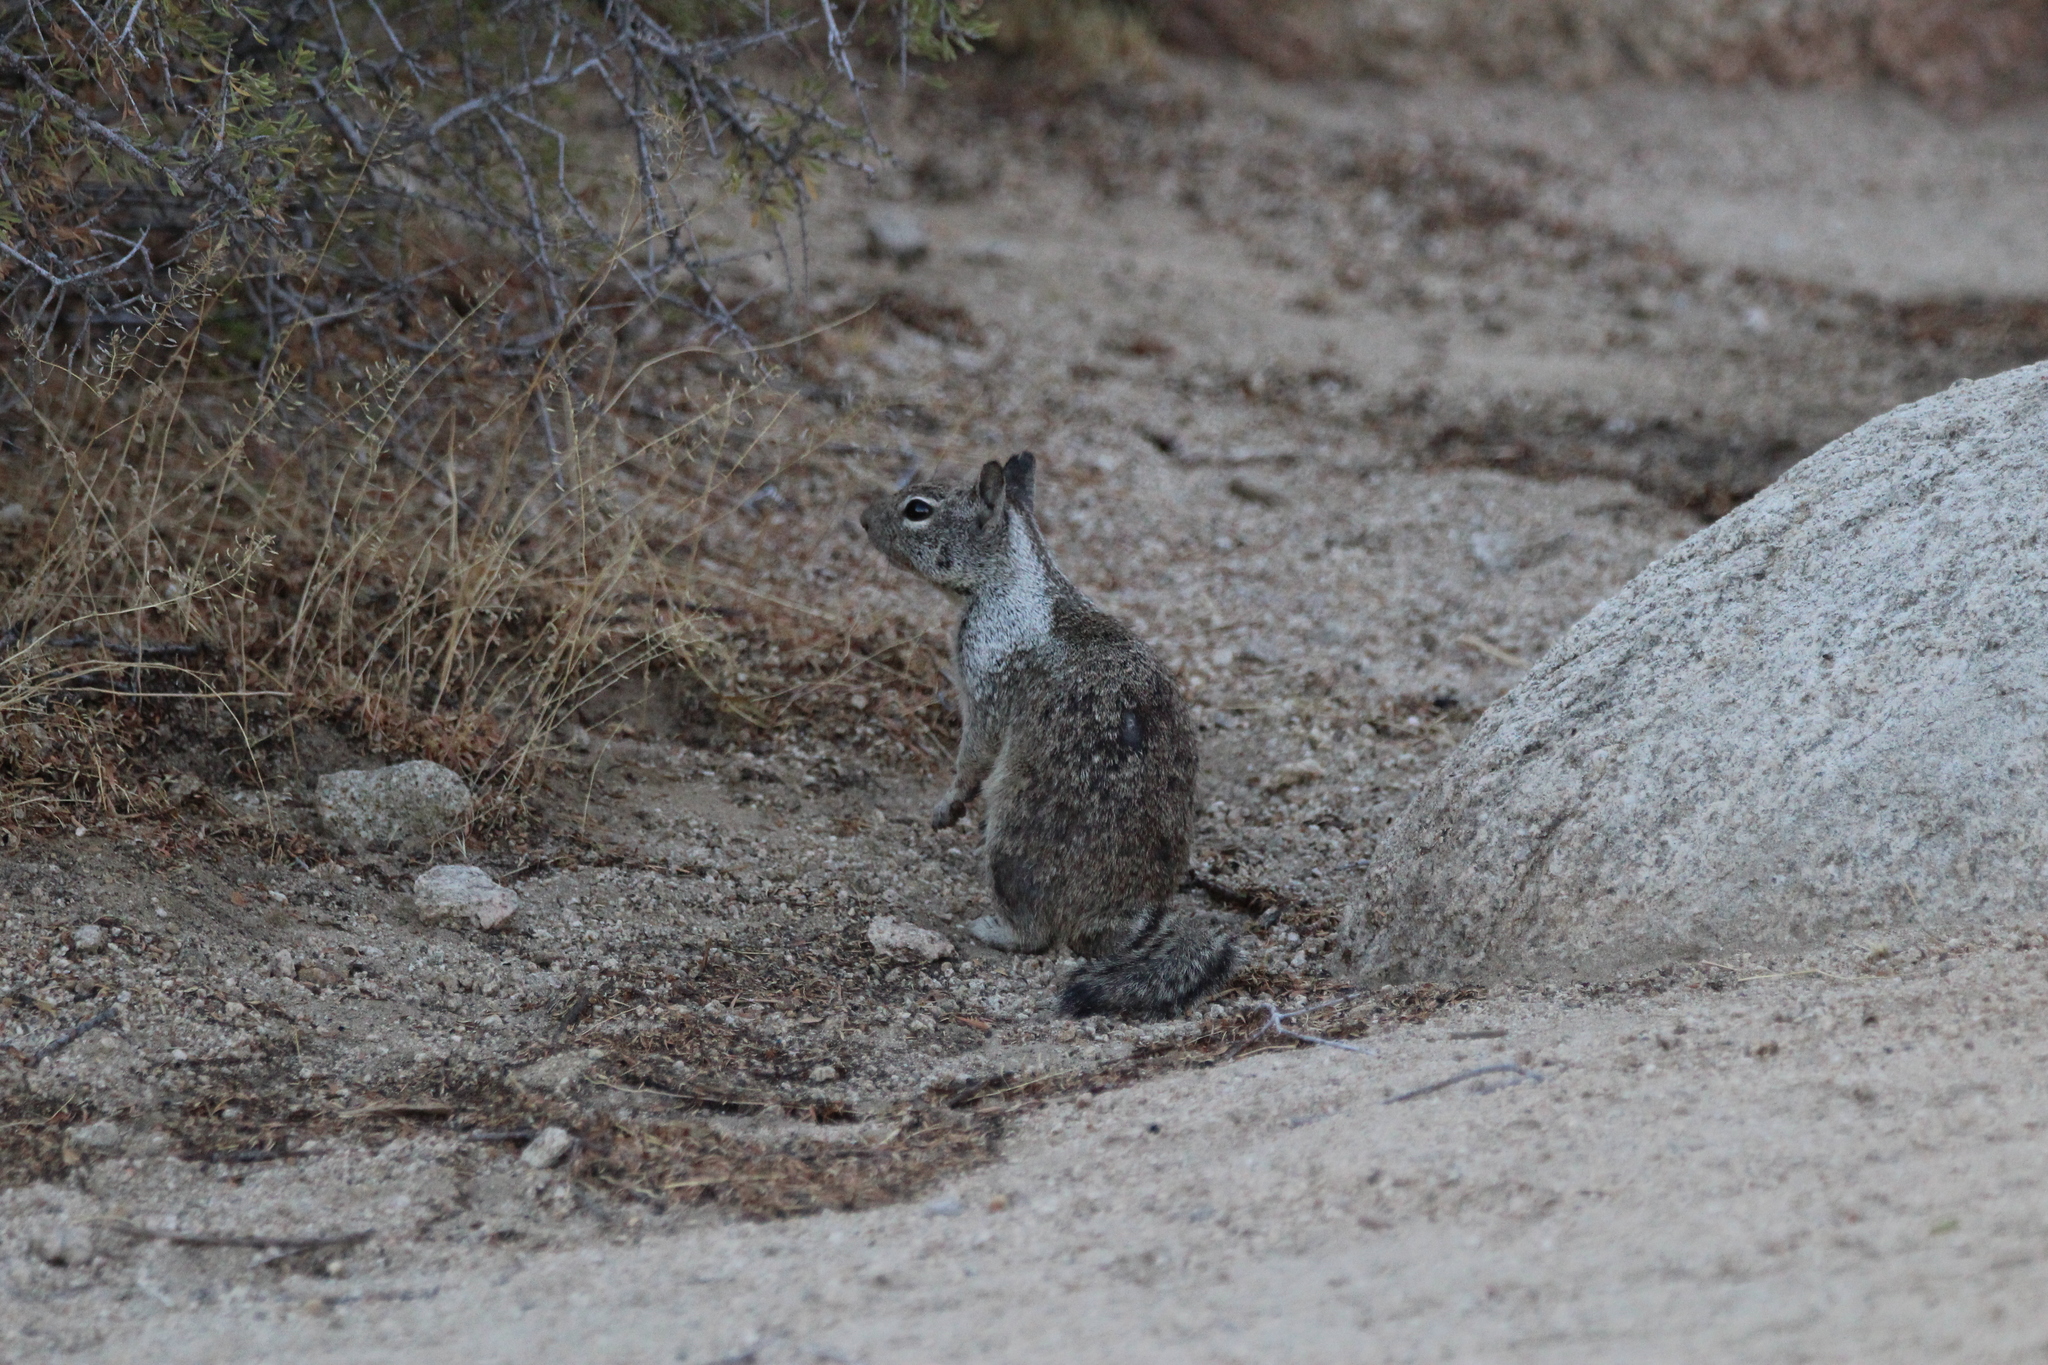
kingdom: Animalia
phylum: Chordata
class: Mammalia
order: Rodentia
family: Sciuridae
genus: Otospermophilus
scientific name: Otospermophilus beecheyi
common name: California ground squirrel
